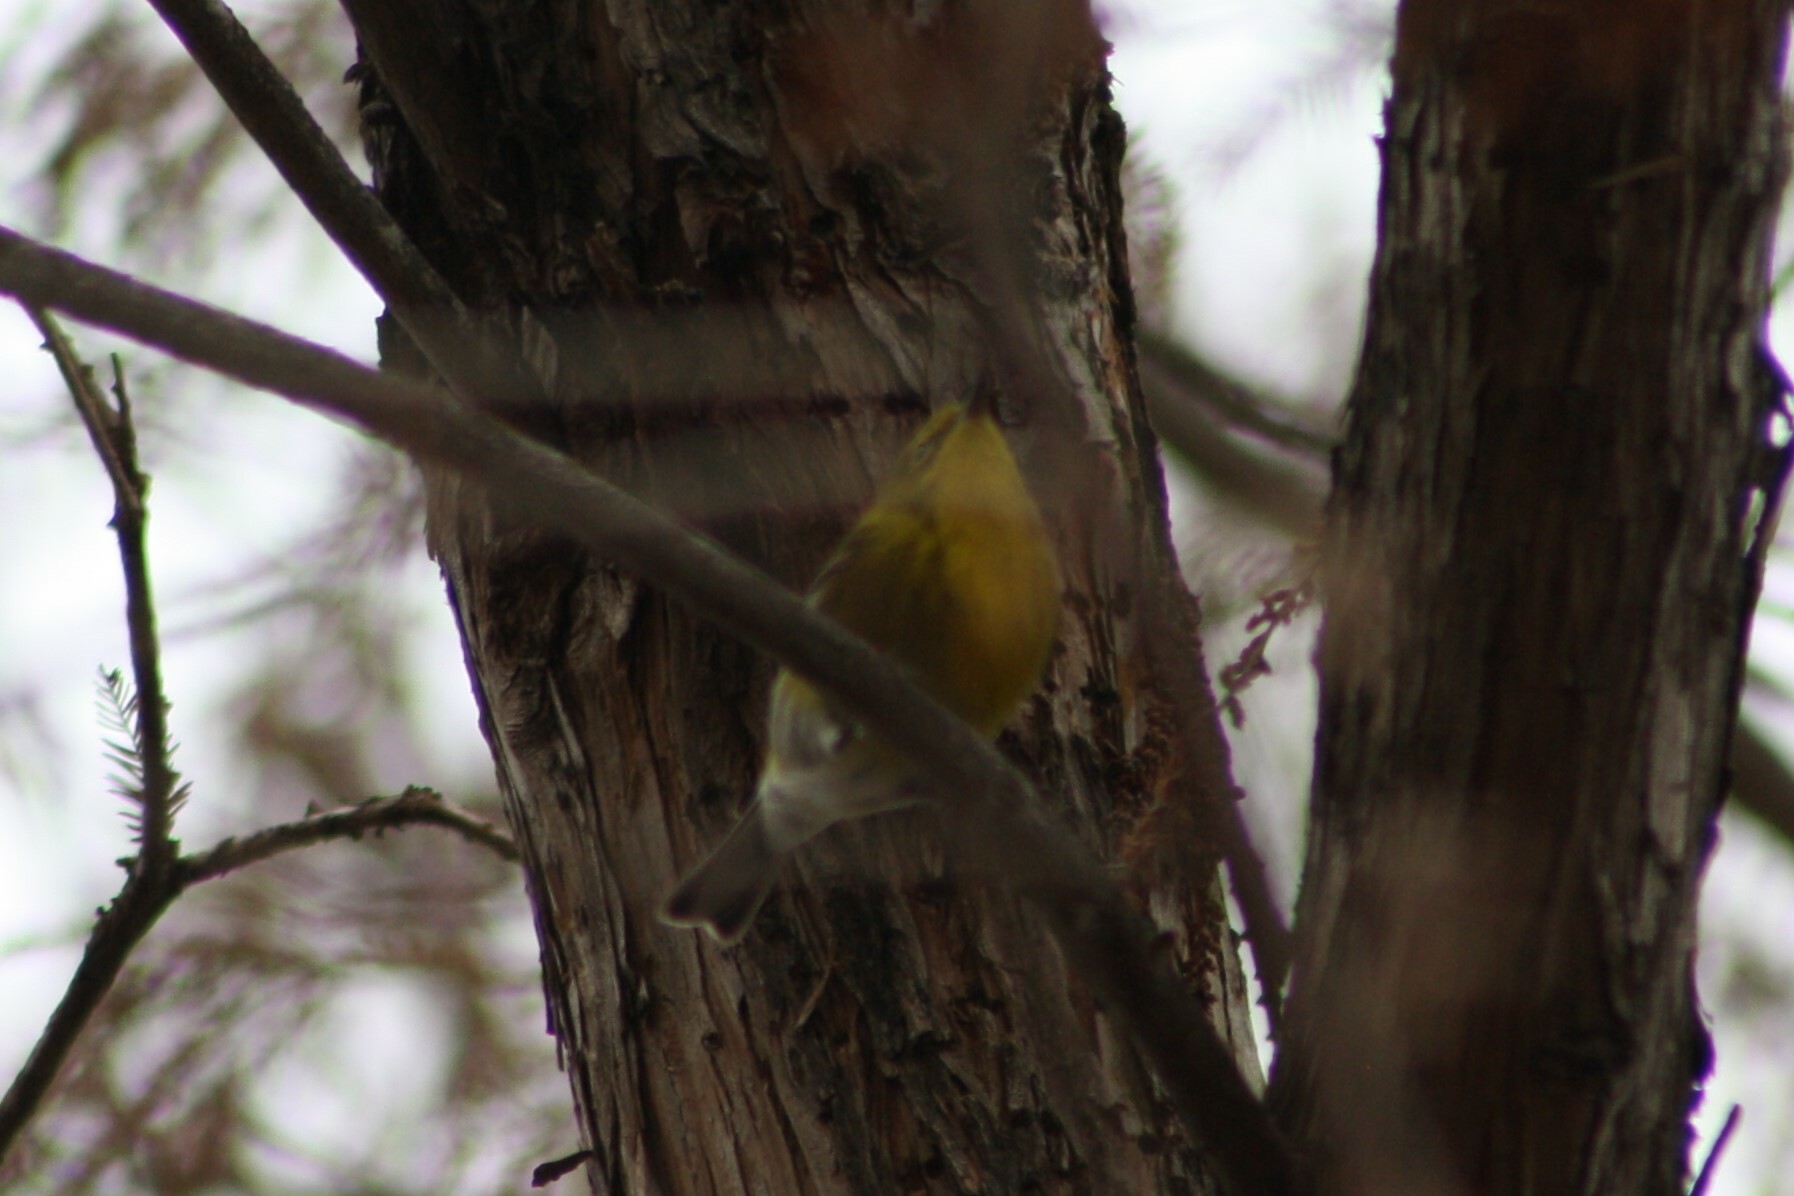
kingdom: Animalia
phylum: Chordata
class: Aves
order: Passeriformes
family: Parulidae
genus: Setophaga
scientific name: Setophaga pinus
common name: Pine warbler
